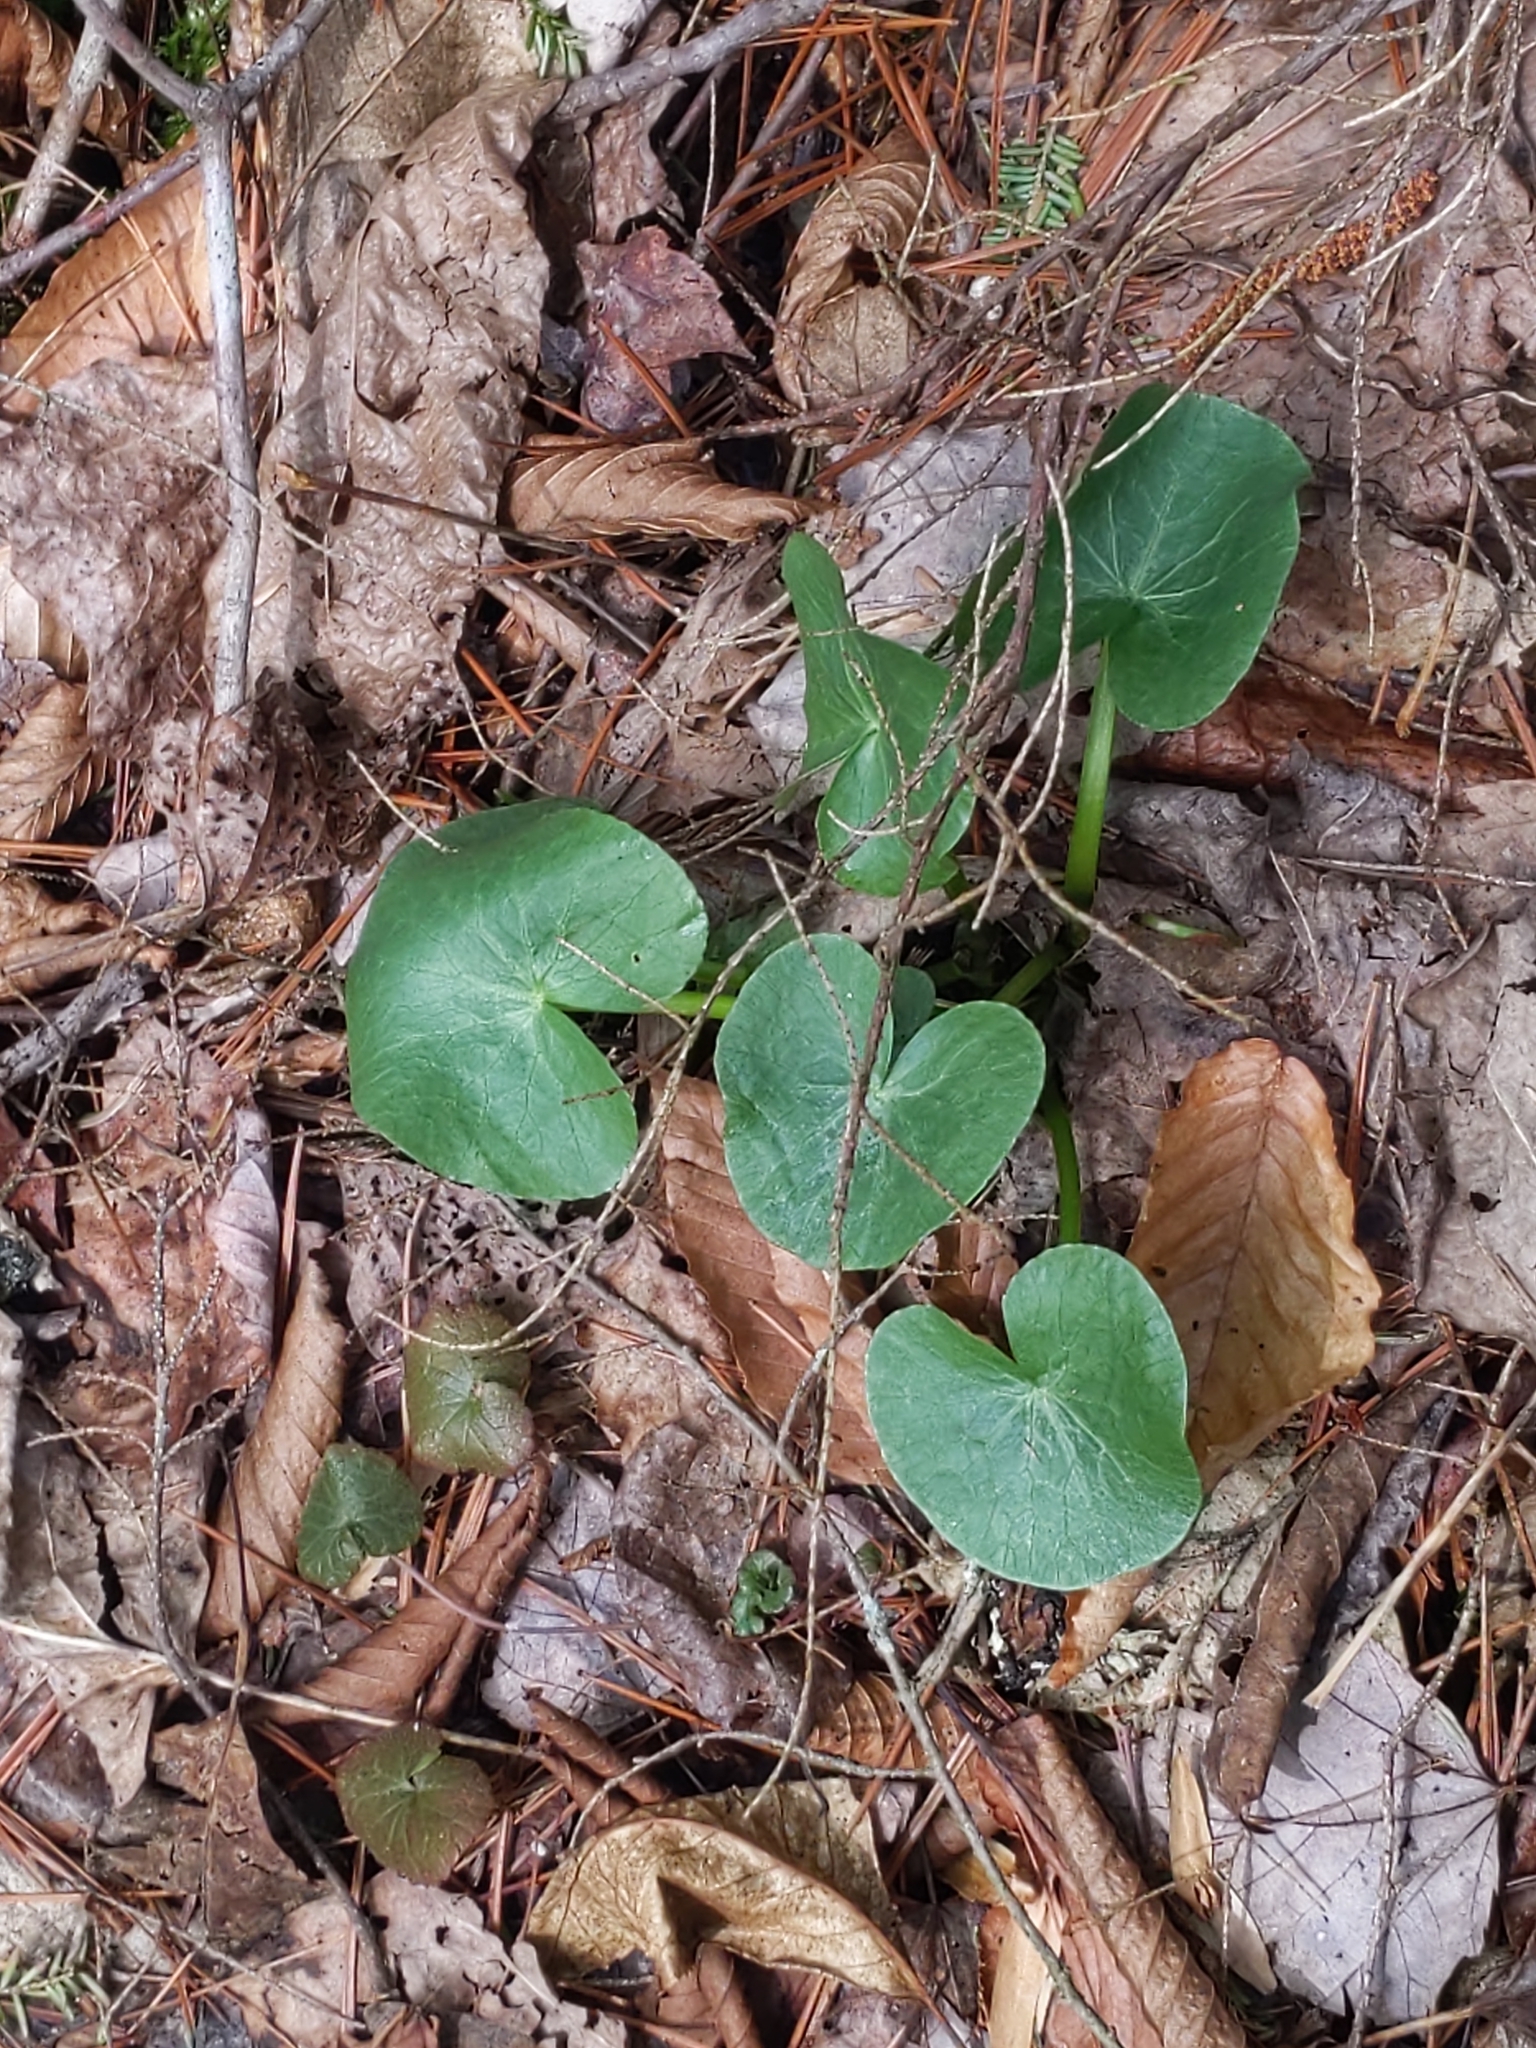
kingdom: Plantae
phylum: Tracheophyta
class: Magnoliopsida
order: Ranunculales
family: Ranunculaceae
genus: Caltha
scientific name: Caltha palustris
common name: Marsh marigold
